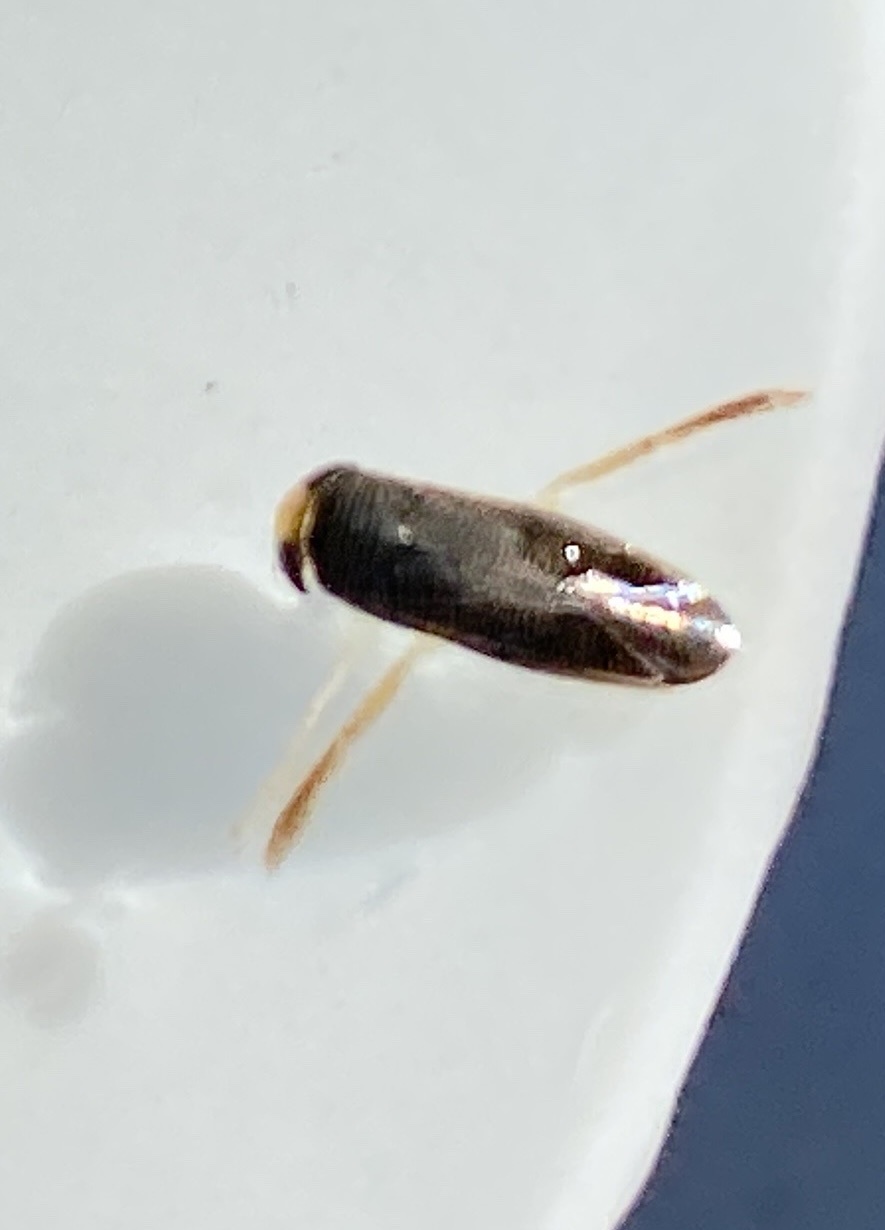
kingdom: Animalia
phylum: Arthropoda
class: Insecta
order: Hemiptera
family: Corixidae
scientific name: Corixidae
